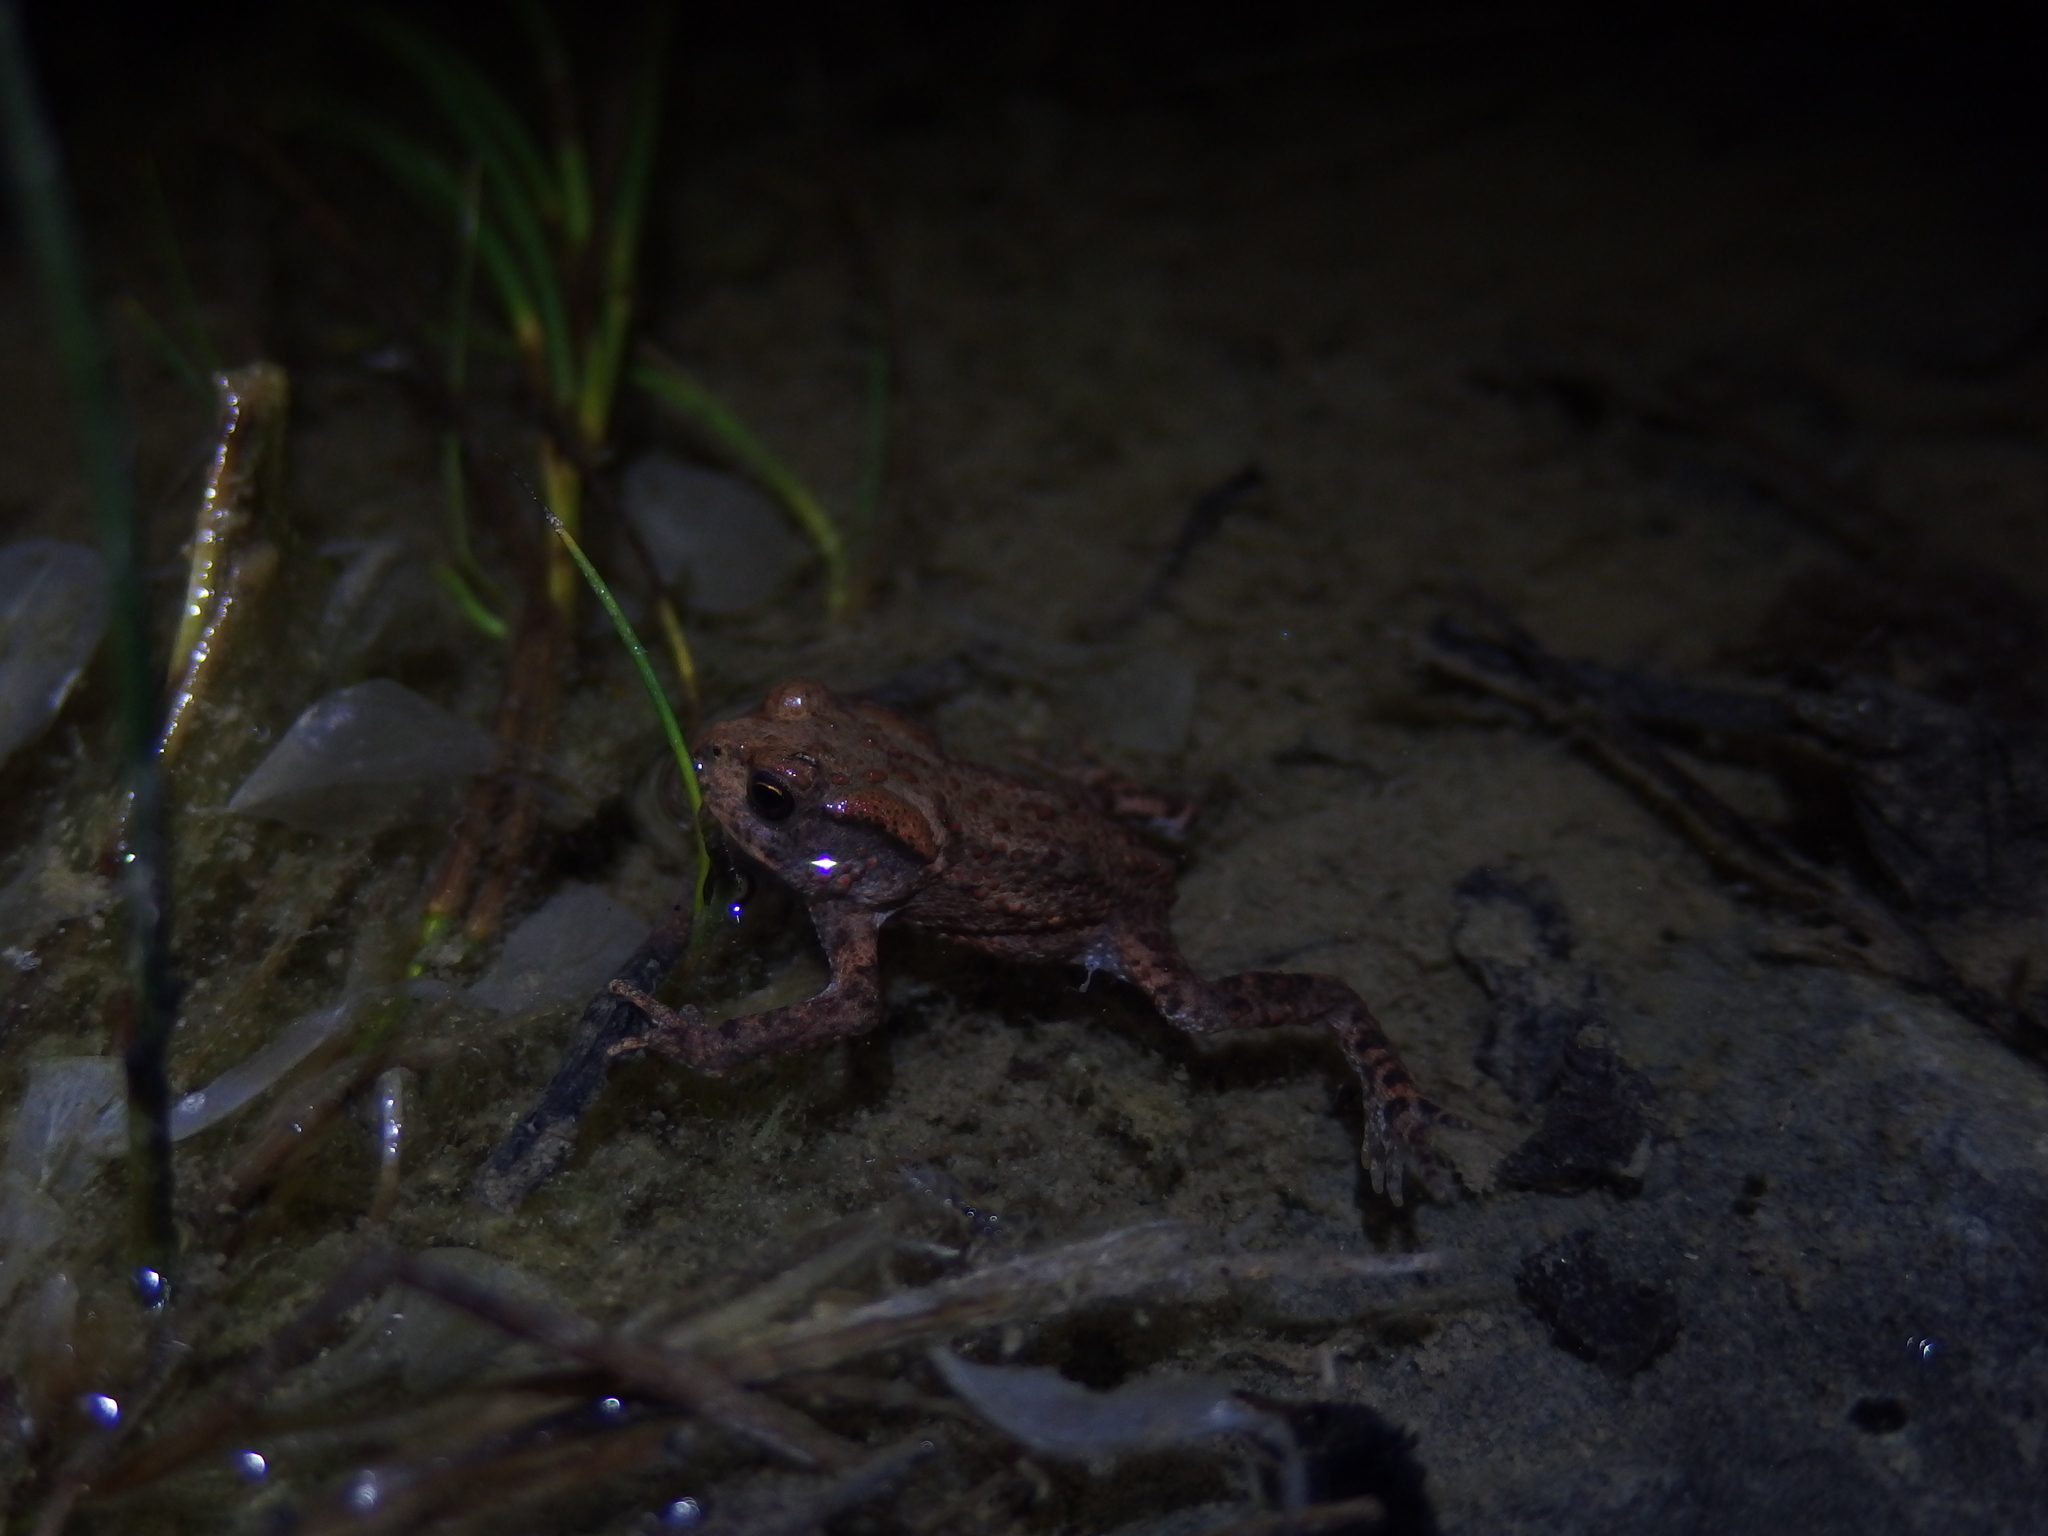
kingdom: Animalia
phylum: Chordata
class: Amphibia
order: Anura
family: Bufonidae
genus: Bufo
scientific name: Bufo bufo
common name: Common toad
